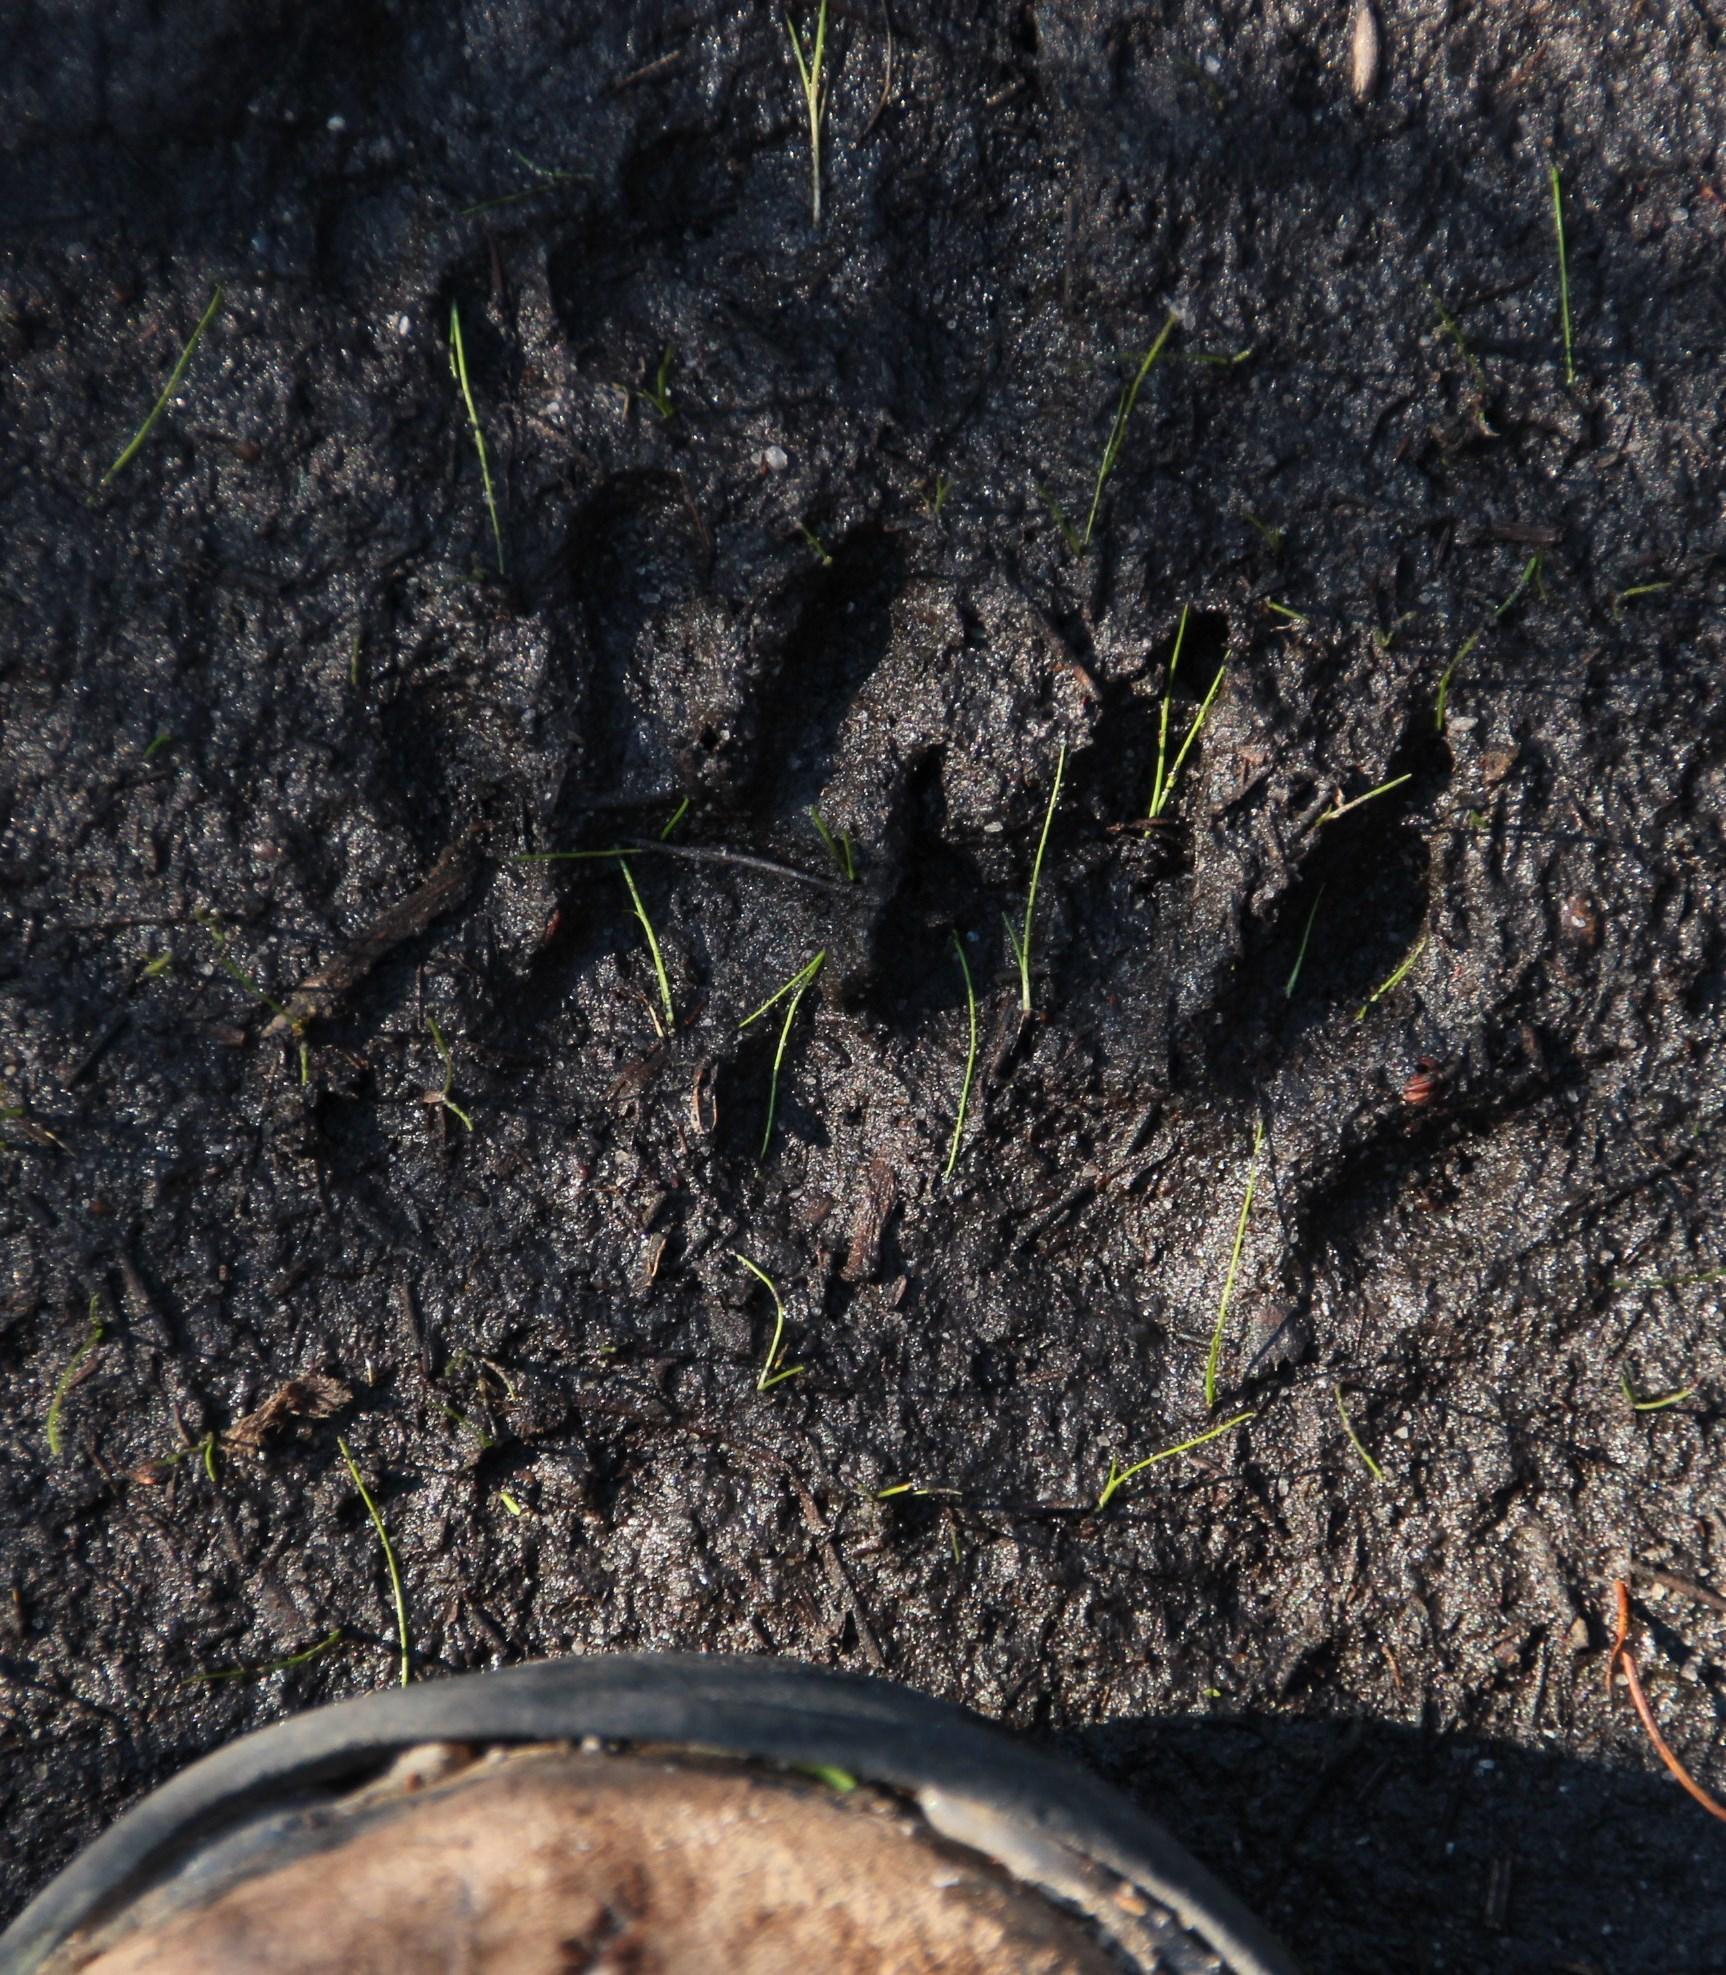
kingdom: Animalia
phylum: Chordata
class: Mammalia
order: Carnivora
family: Herpestidae
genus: Atilax
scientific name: Atilax paludinosus
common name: Marsh mongoose
